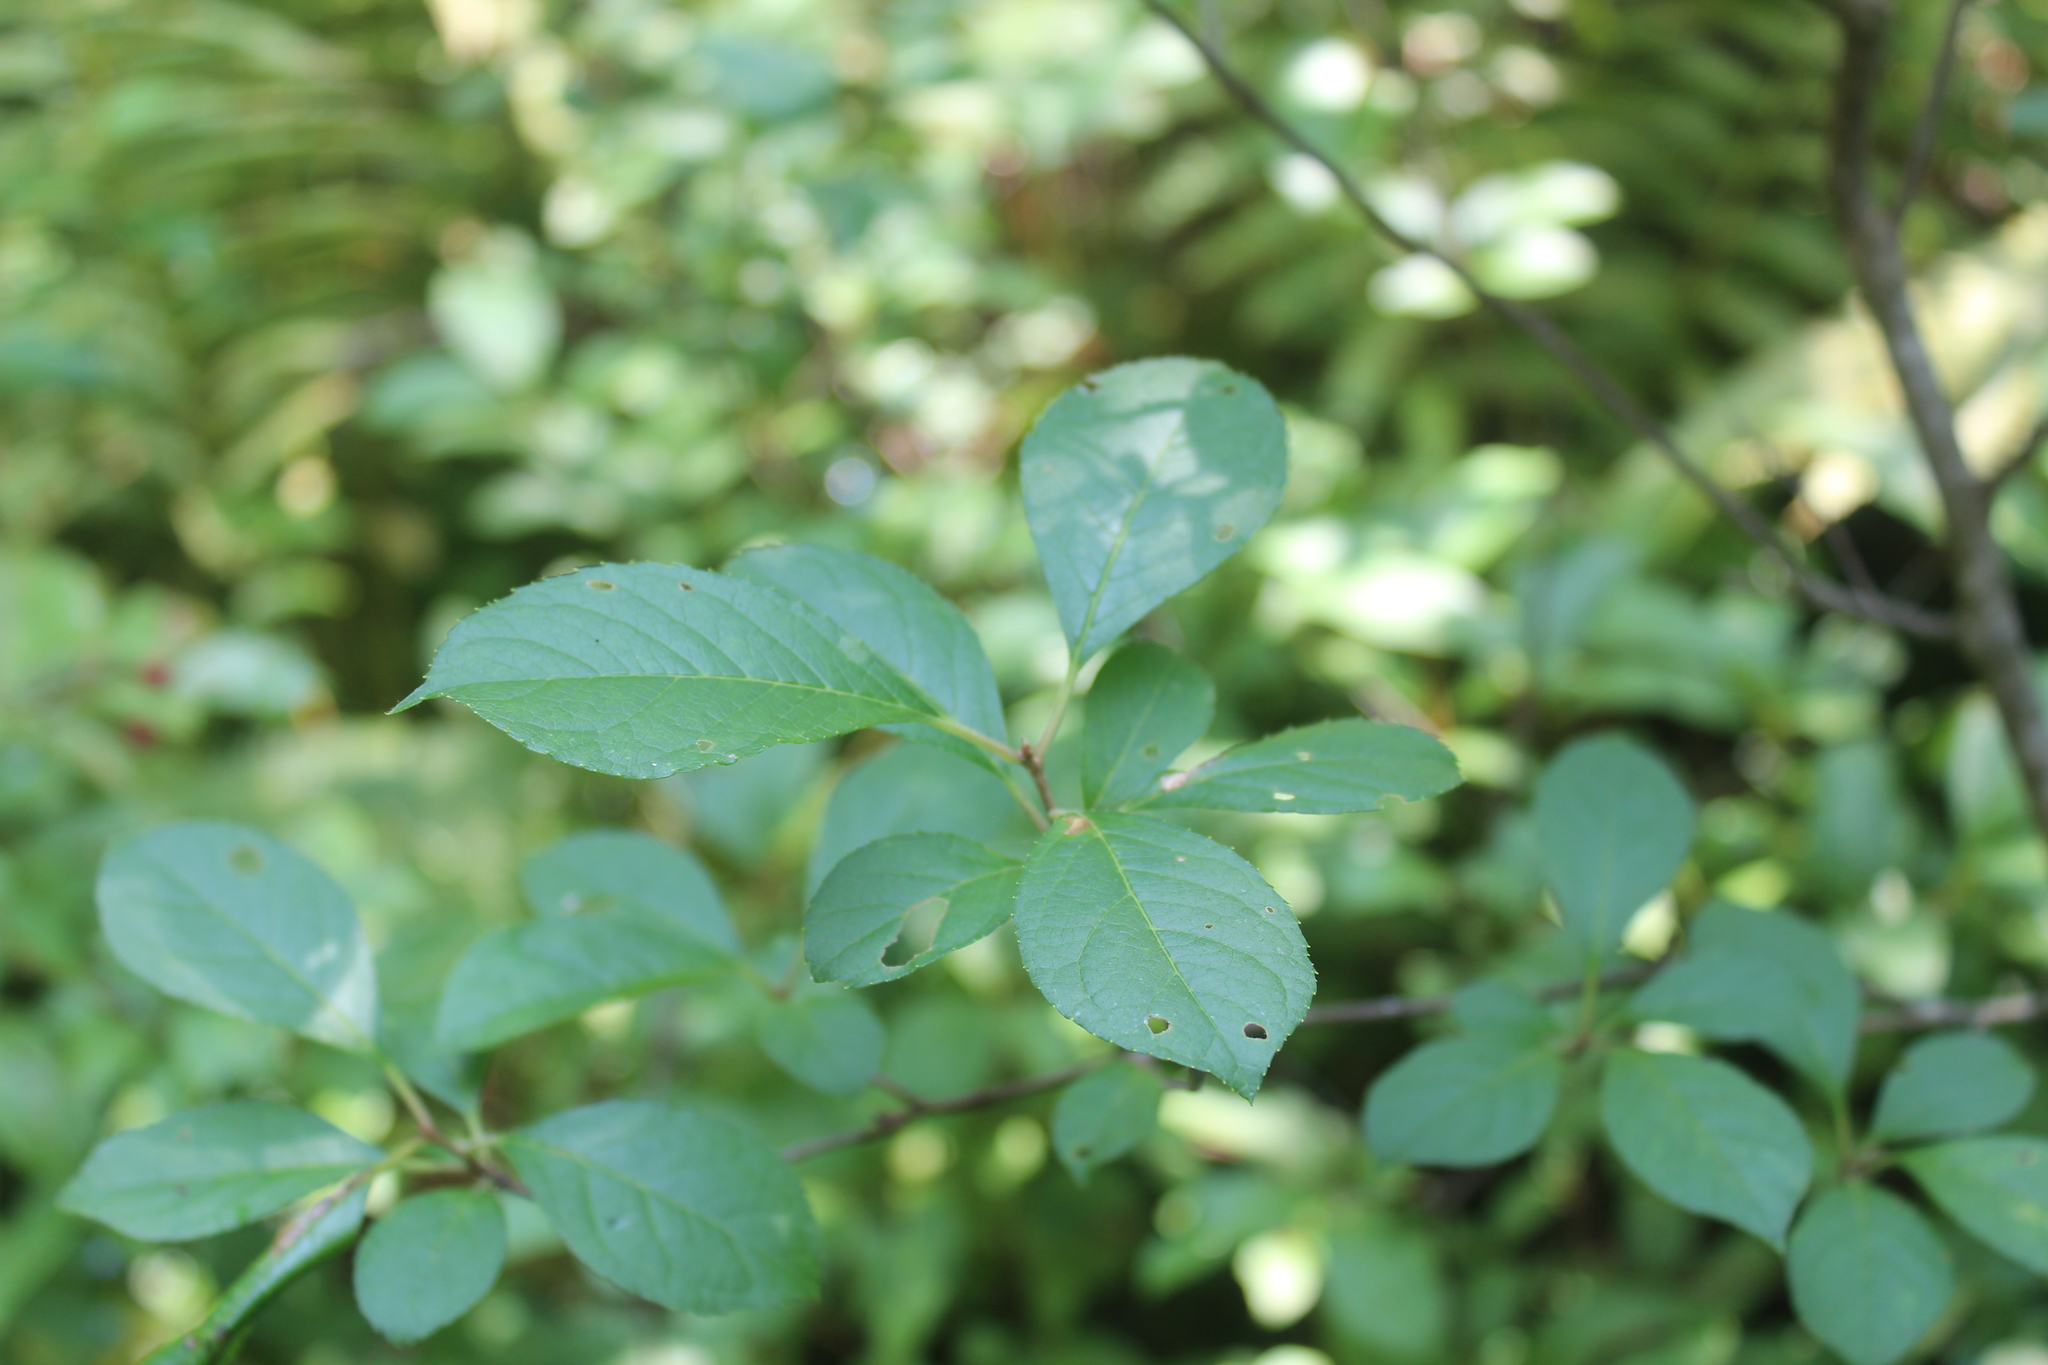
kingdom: Plantae
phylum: Tracheophyta
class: Magnoliopsida
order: Aquifoliales
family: Aquifoliaceae
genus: Ilex
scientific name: Ilex verticillata
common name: Virginia winterberry
